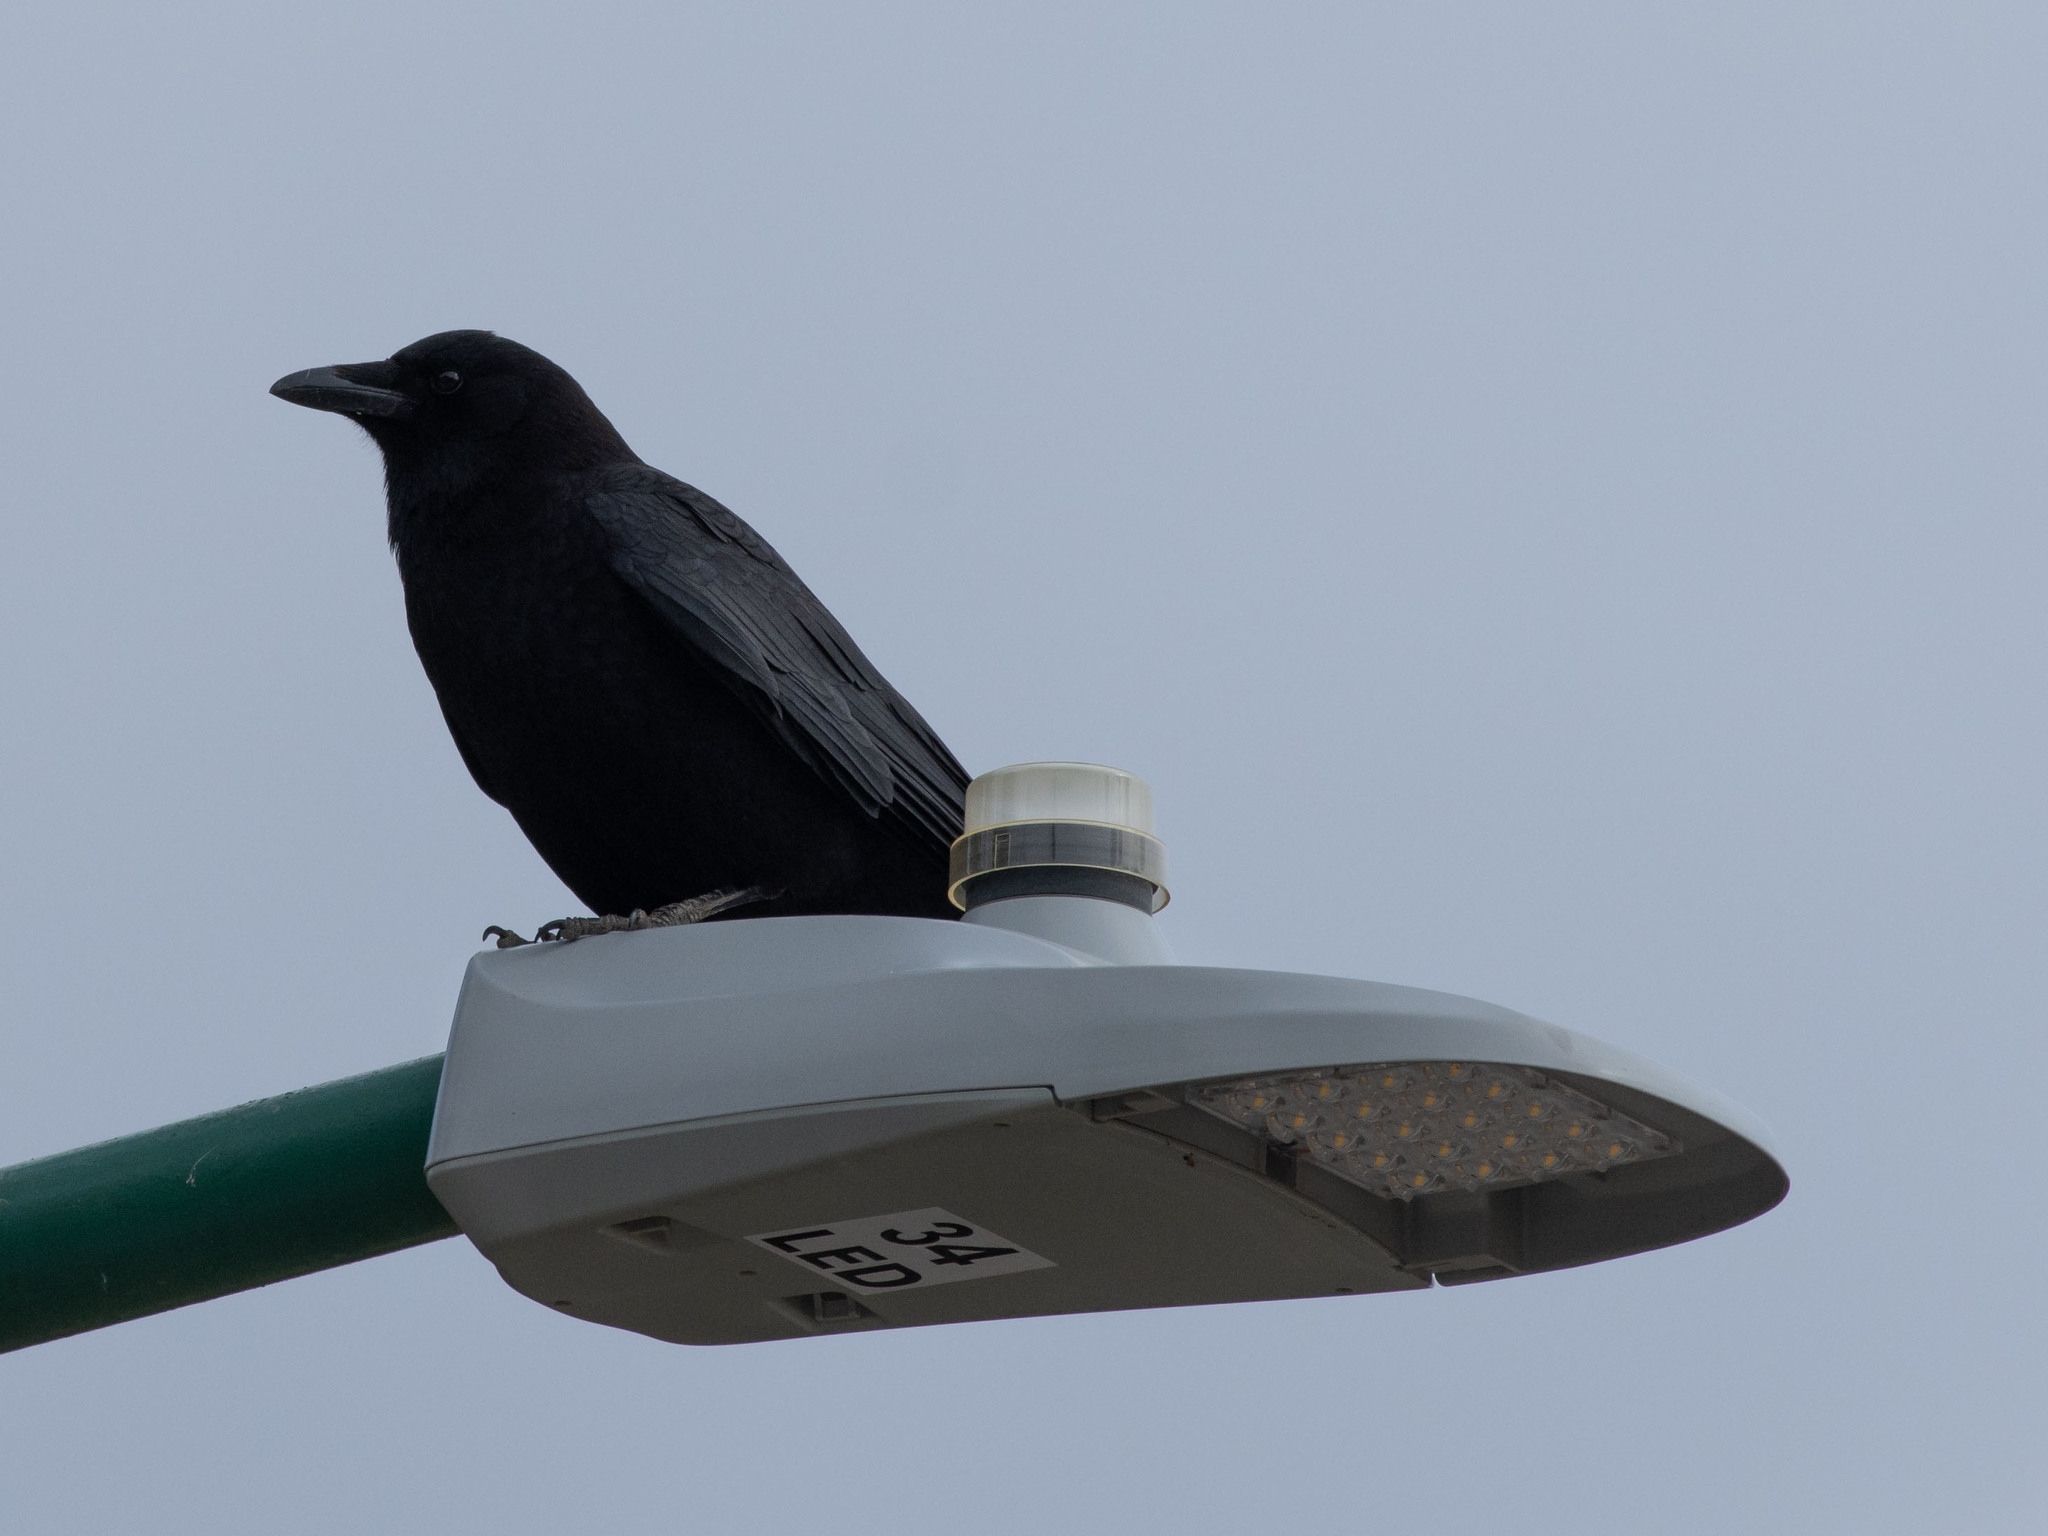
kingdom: Animalia
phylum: Chordata
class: Aves
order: Passeriformes
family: Corvidae
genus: Corvus
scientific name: Corvus brachyrhynchos
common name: American crow
